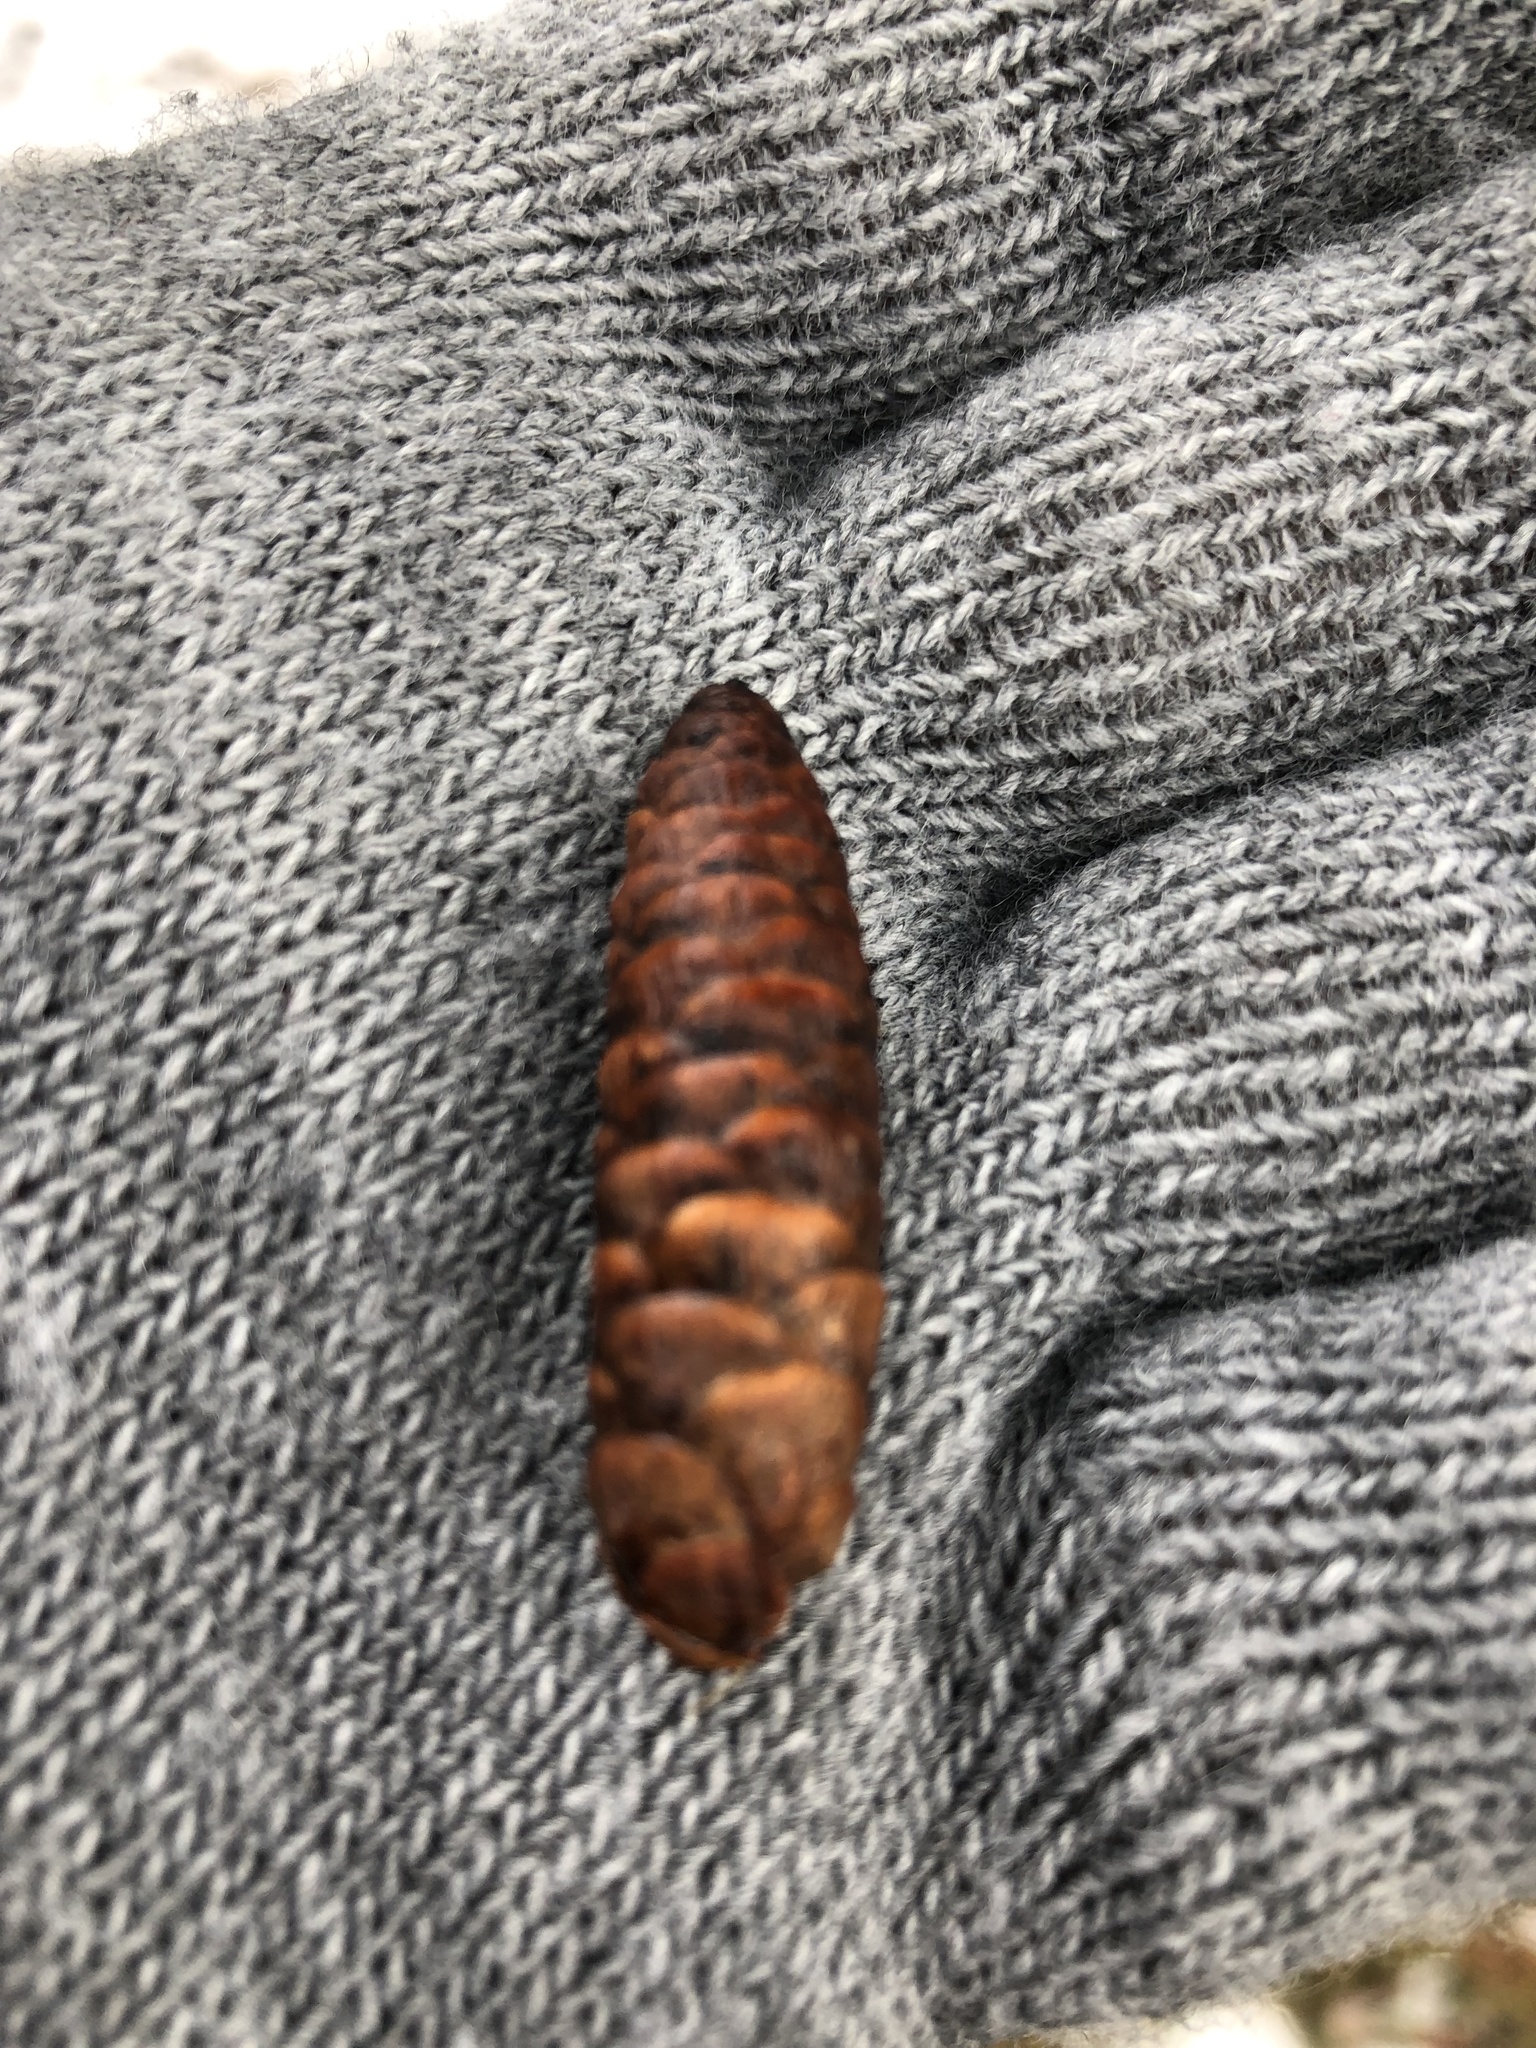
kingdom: Plantae
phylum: Tracheophyta
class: Pinopsida
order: Pinales
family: Pinaceae
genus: Picea
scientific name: Picea glauca
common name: White spruce
